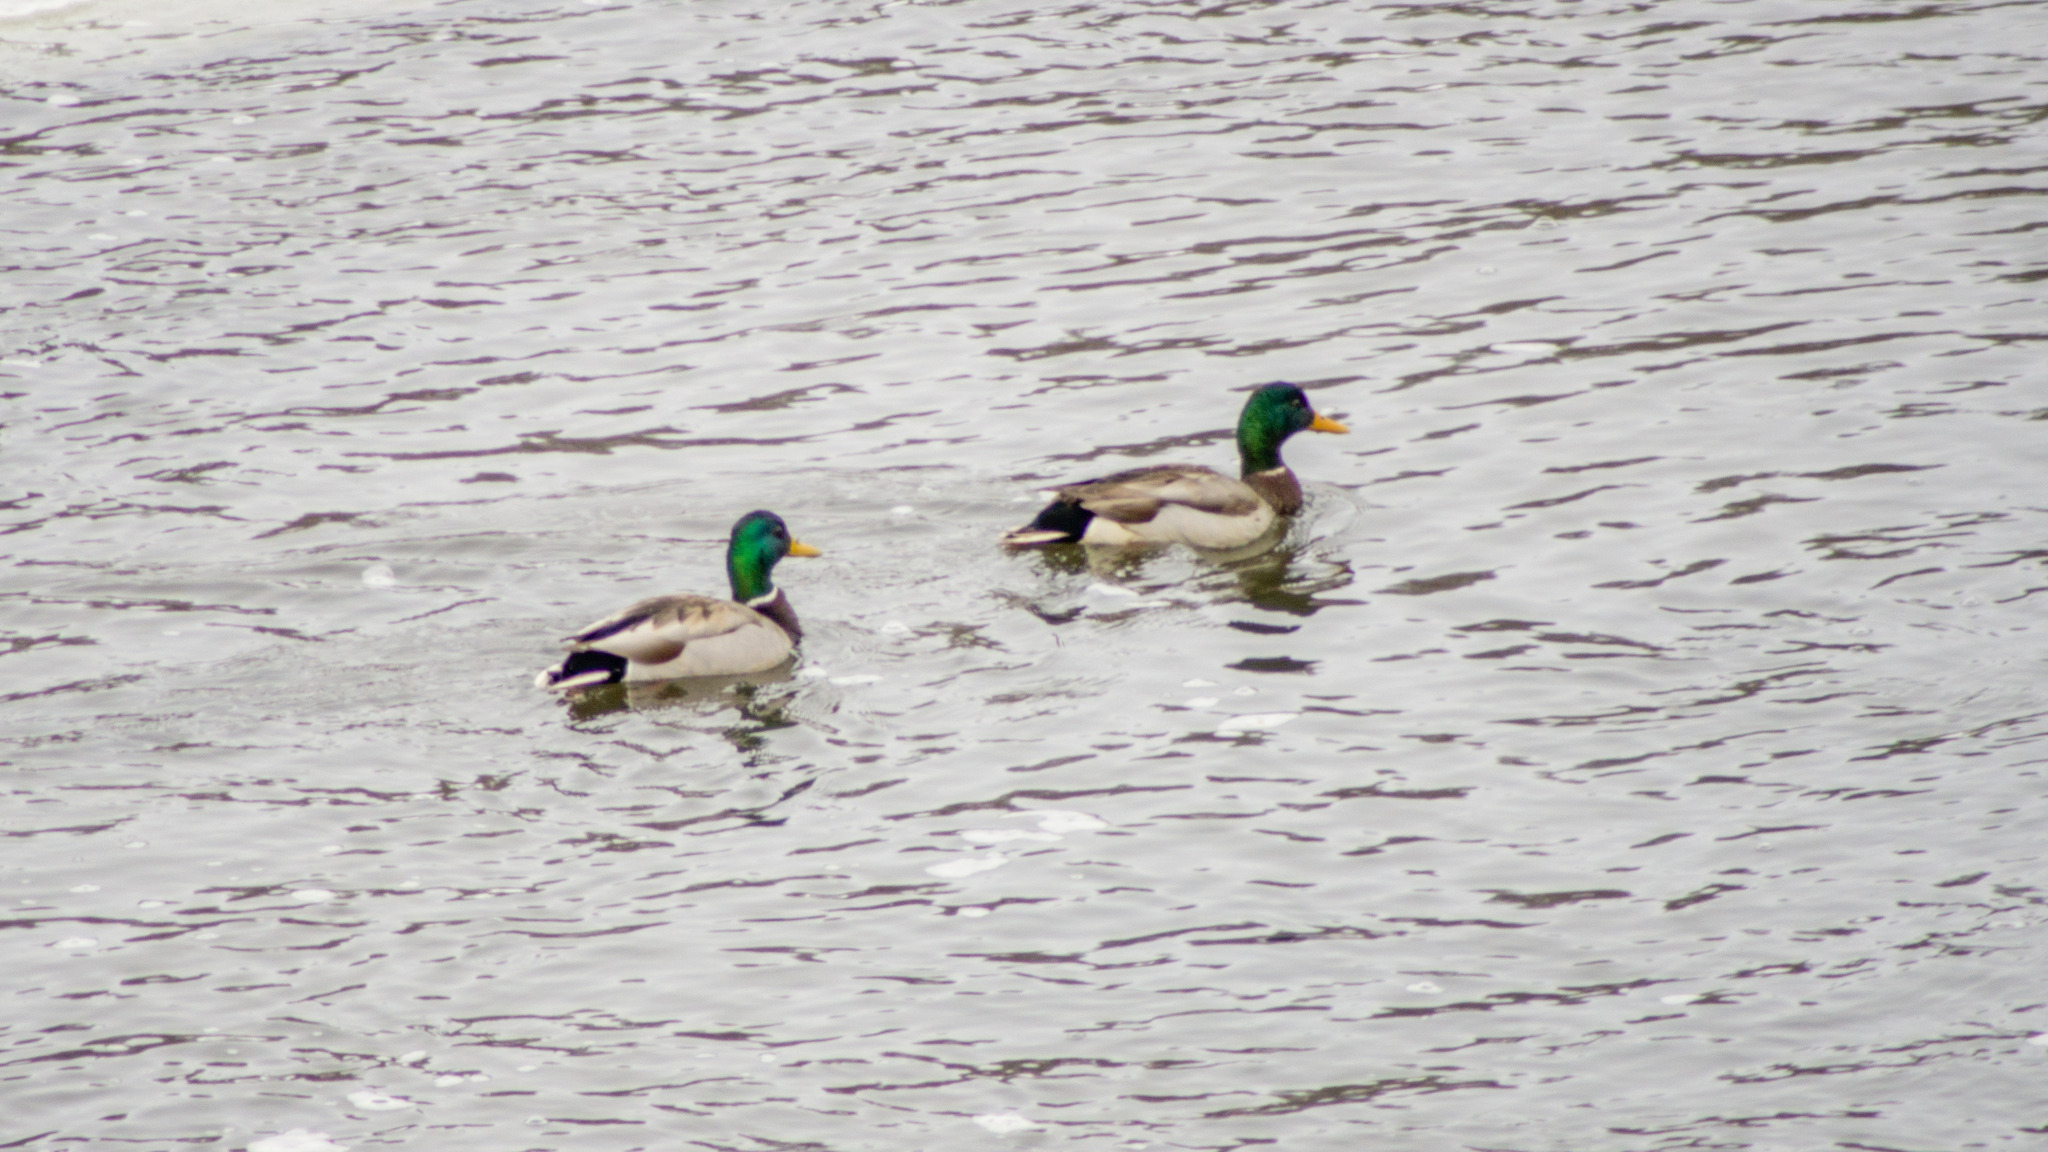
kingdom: Animalia
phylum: Chordata
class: Aves
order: Anseriformes
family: Anatidae
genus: Anas
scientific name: Anas platyrhynchos
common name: Mallard
